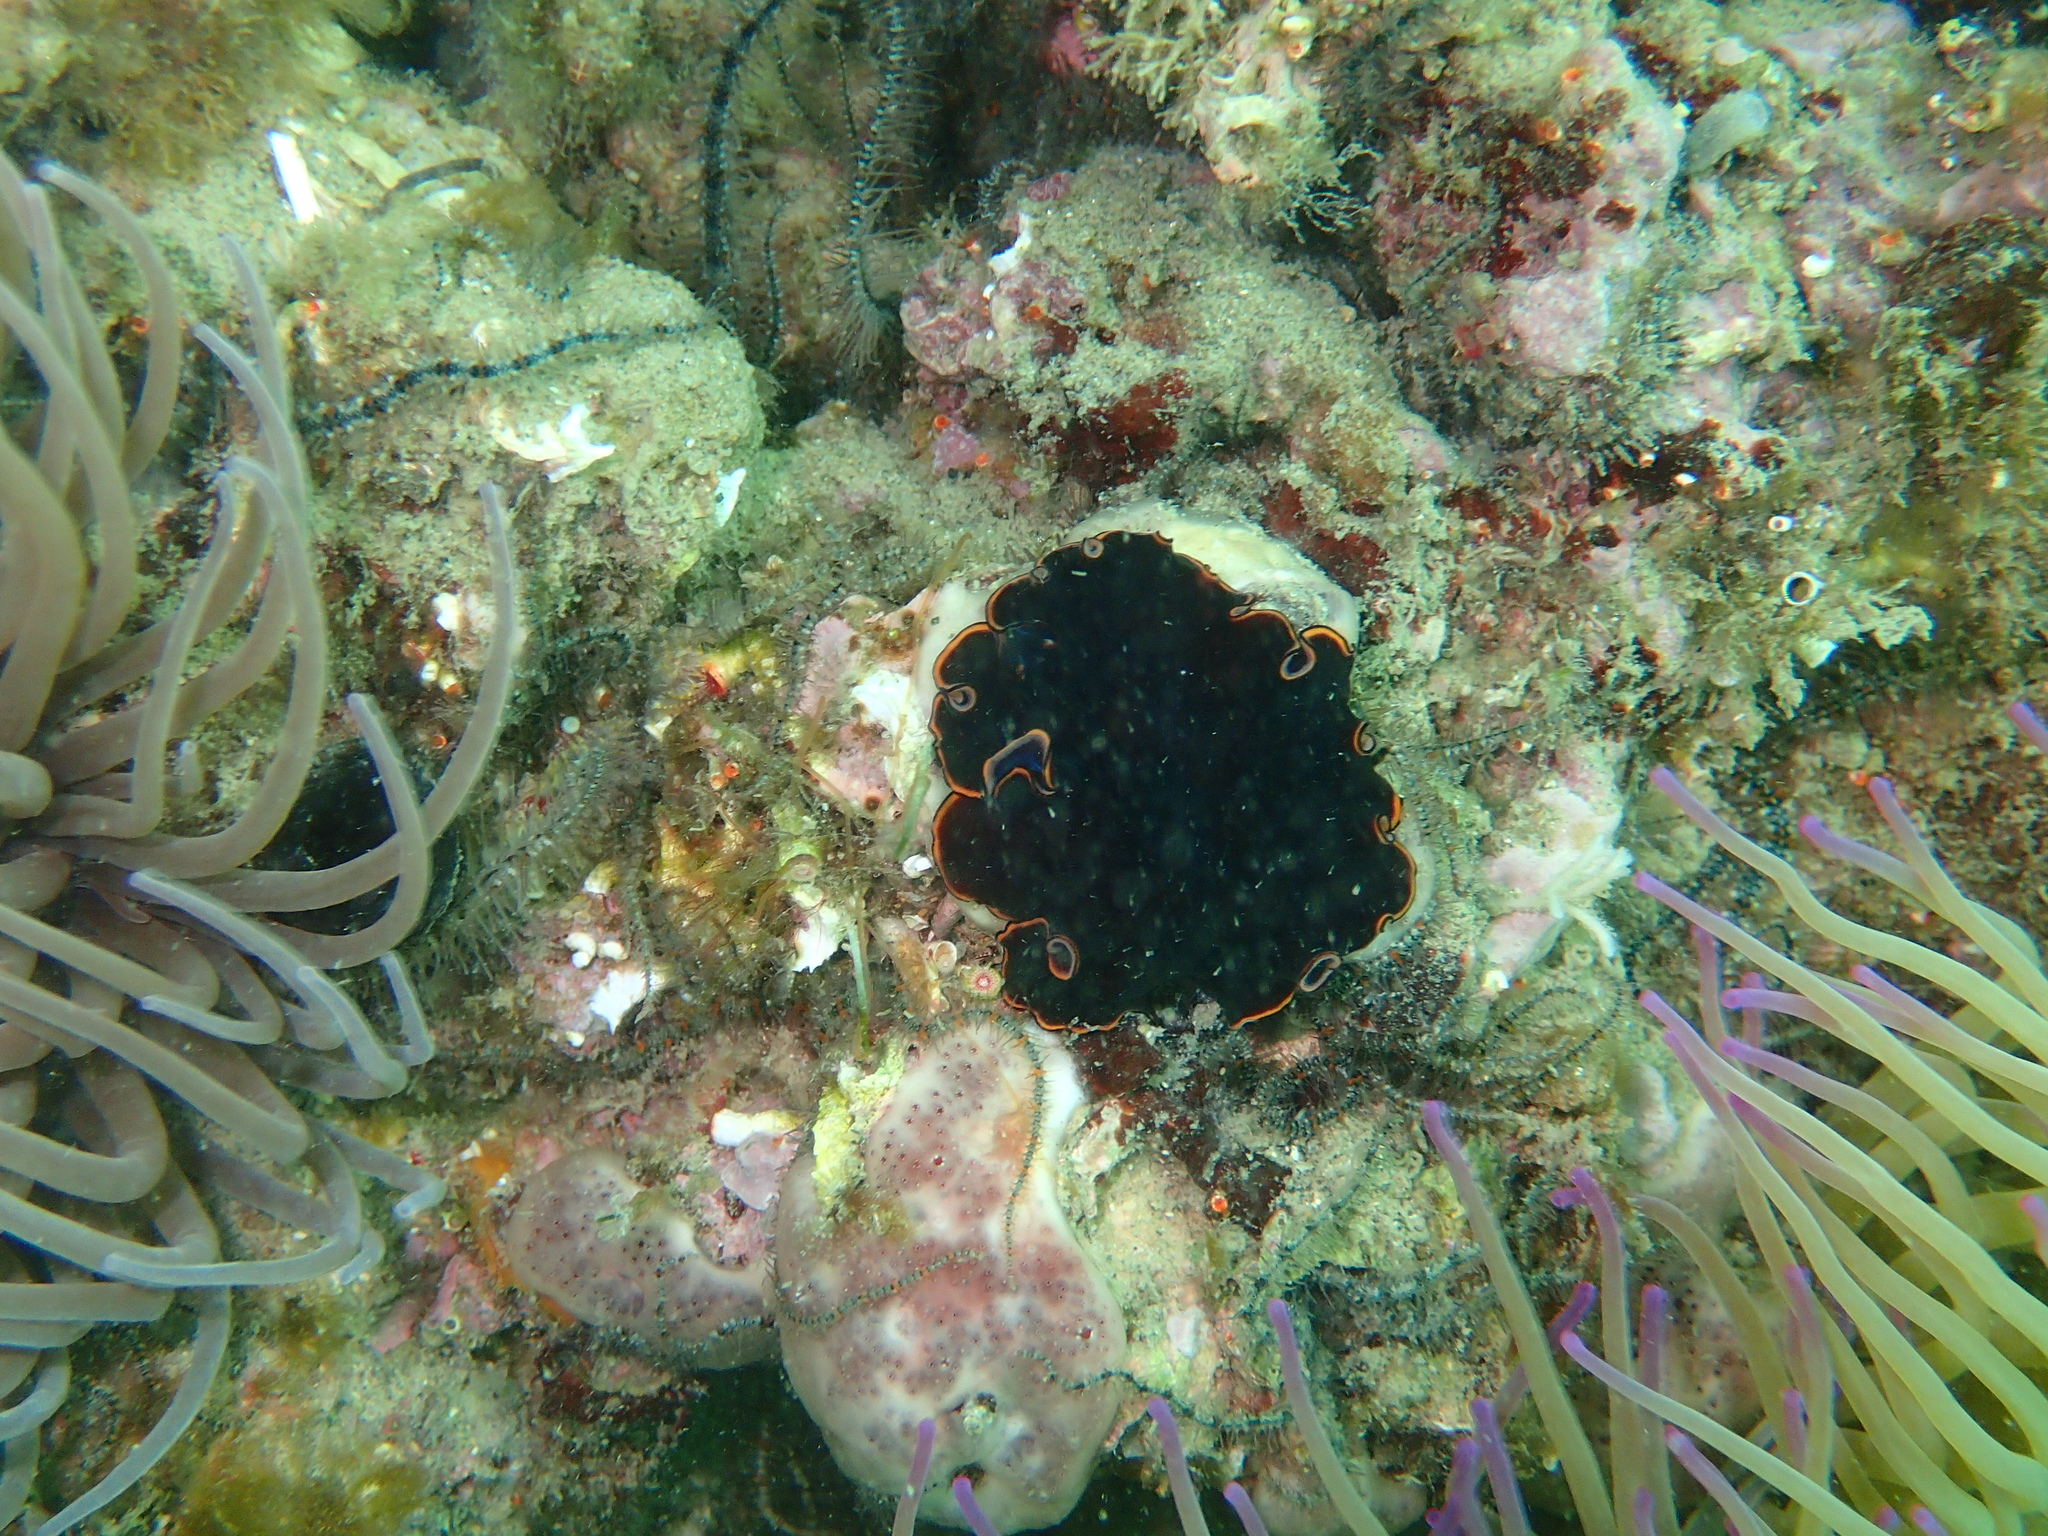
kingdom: Animalia
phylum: Platyhelminthes
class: Turbellaria
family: Pseudocerotidae
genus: Pseudobiceros
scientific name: Pseudobiceros splendidus
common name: Red-rim flatworm
